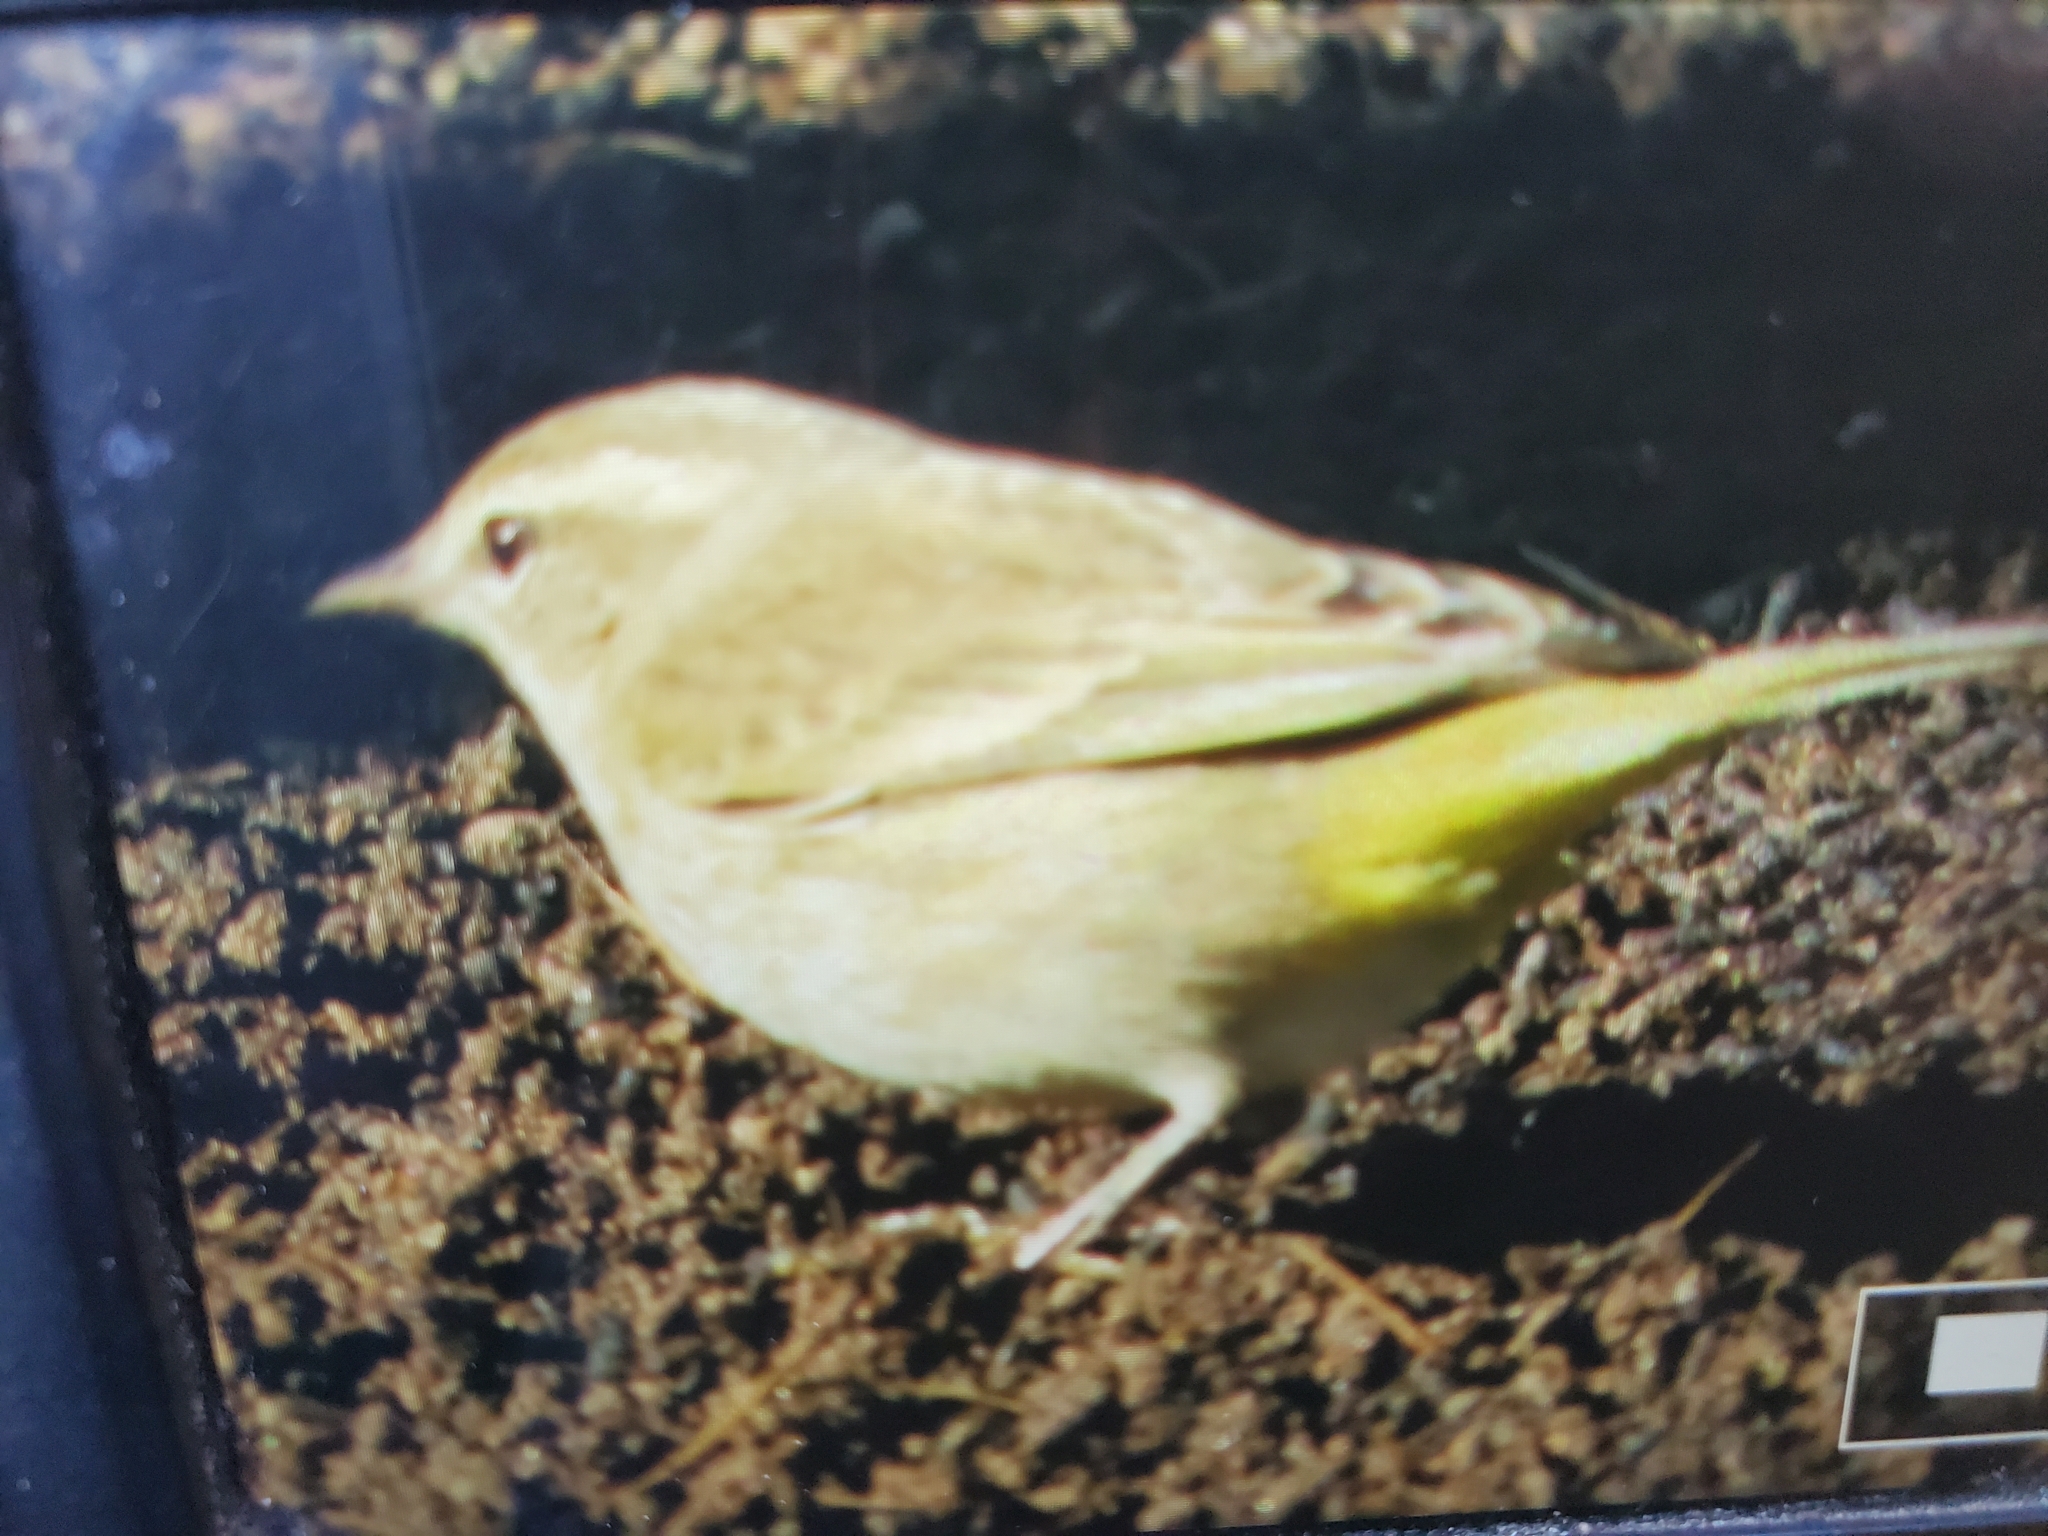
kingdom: Animalia
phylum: Chordata
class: Aves
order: Passeriformes
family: Parulidae
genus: Setophaga
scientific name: Setophaga palmarum
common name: Palm warbler
